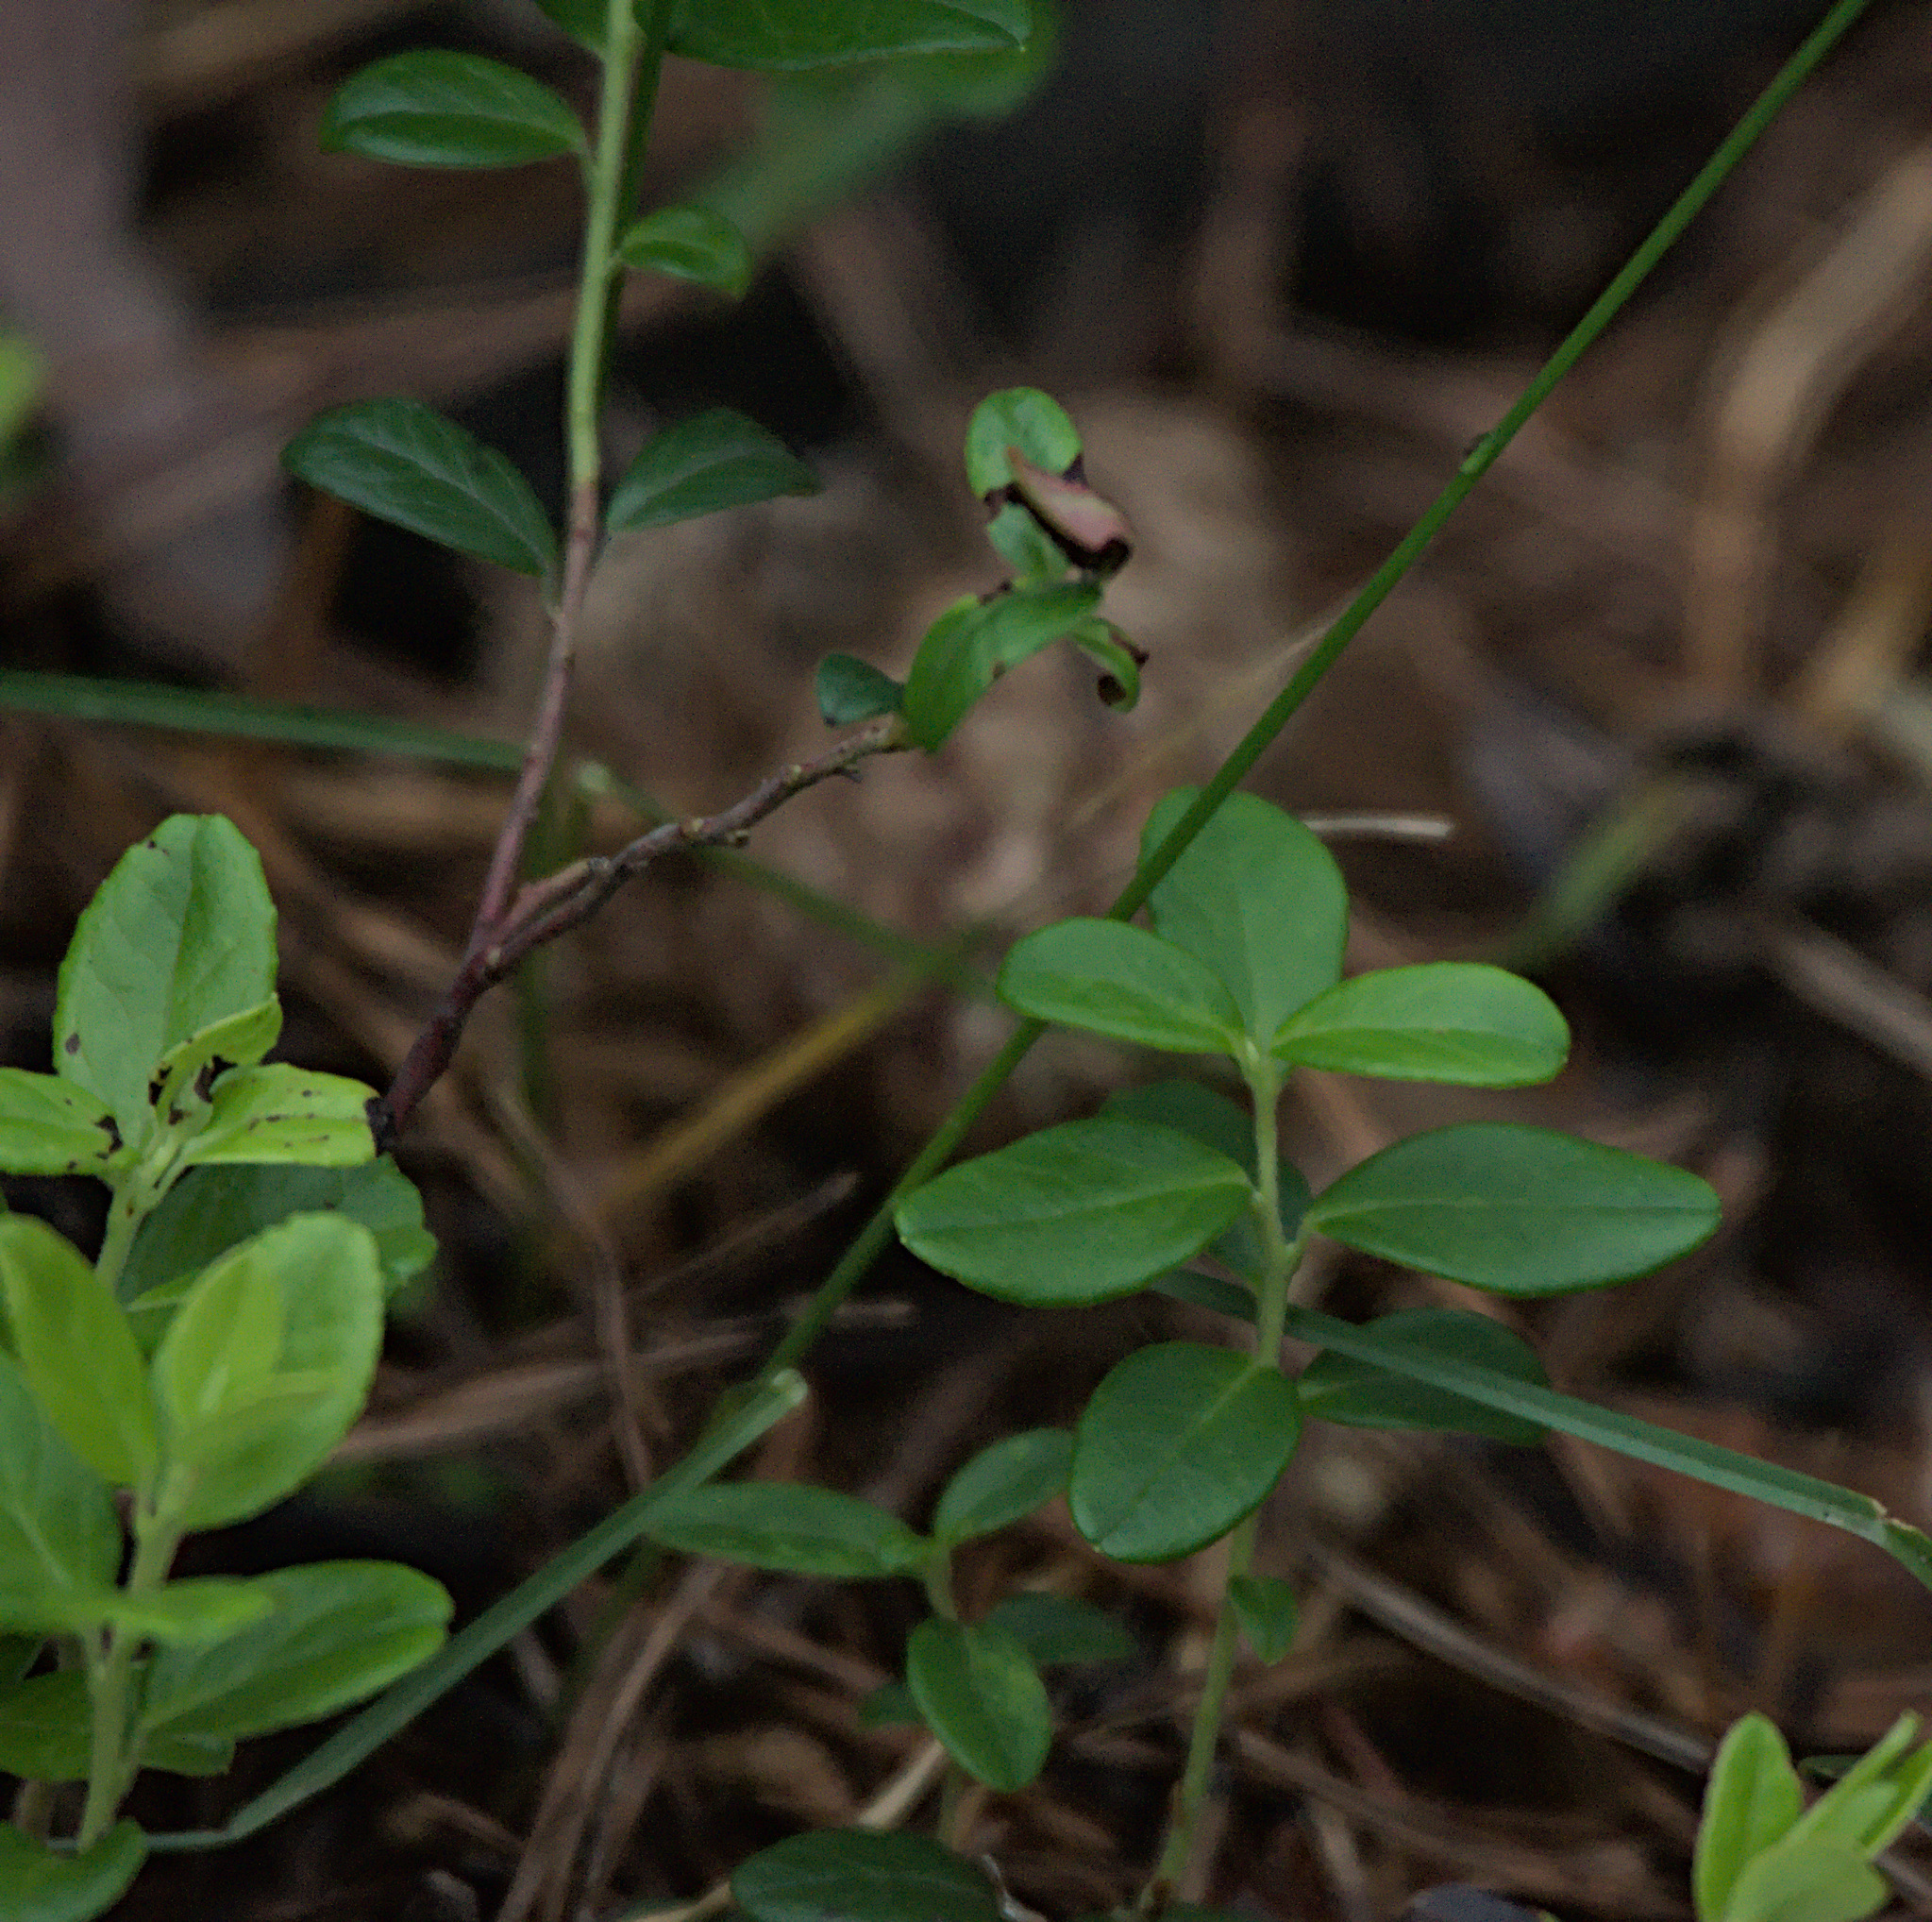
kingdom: Plantae
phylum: Tracheophyta
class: Magnoliopsida
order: Ericales
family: Ericaceae
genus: Vaccinium
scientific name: Vaccinium vitis-idaea
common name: Cowberry
